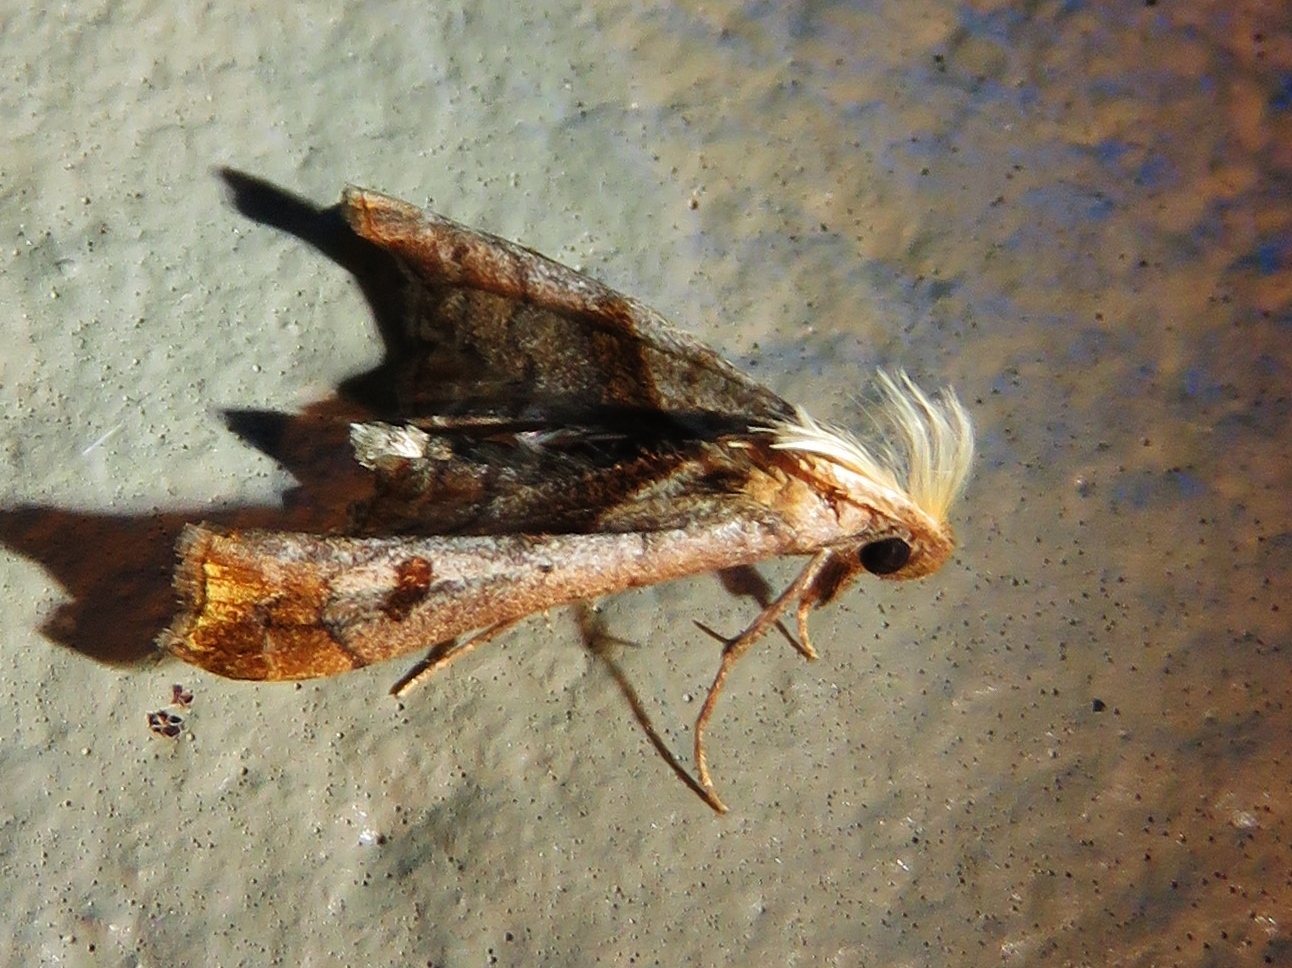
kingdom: Animalia
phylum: Arthropoda
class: Insecta
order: Lepidoptera
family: Erebidae
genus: Palthis
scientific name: Palthis angulalis
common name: Dark-spotted palthis moth
